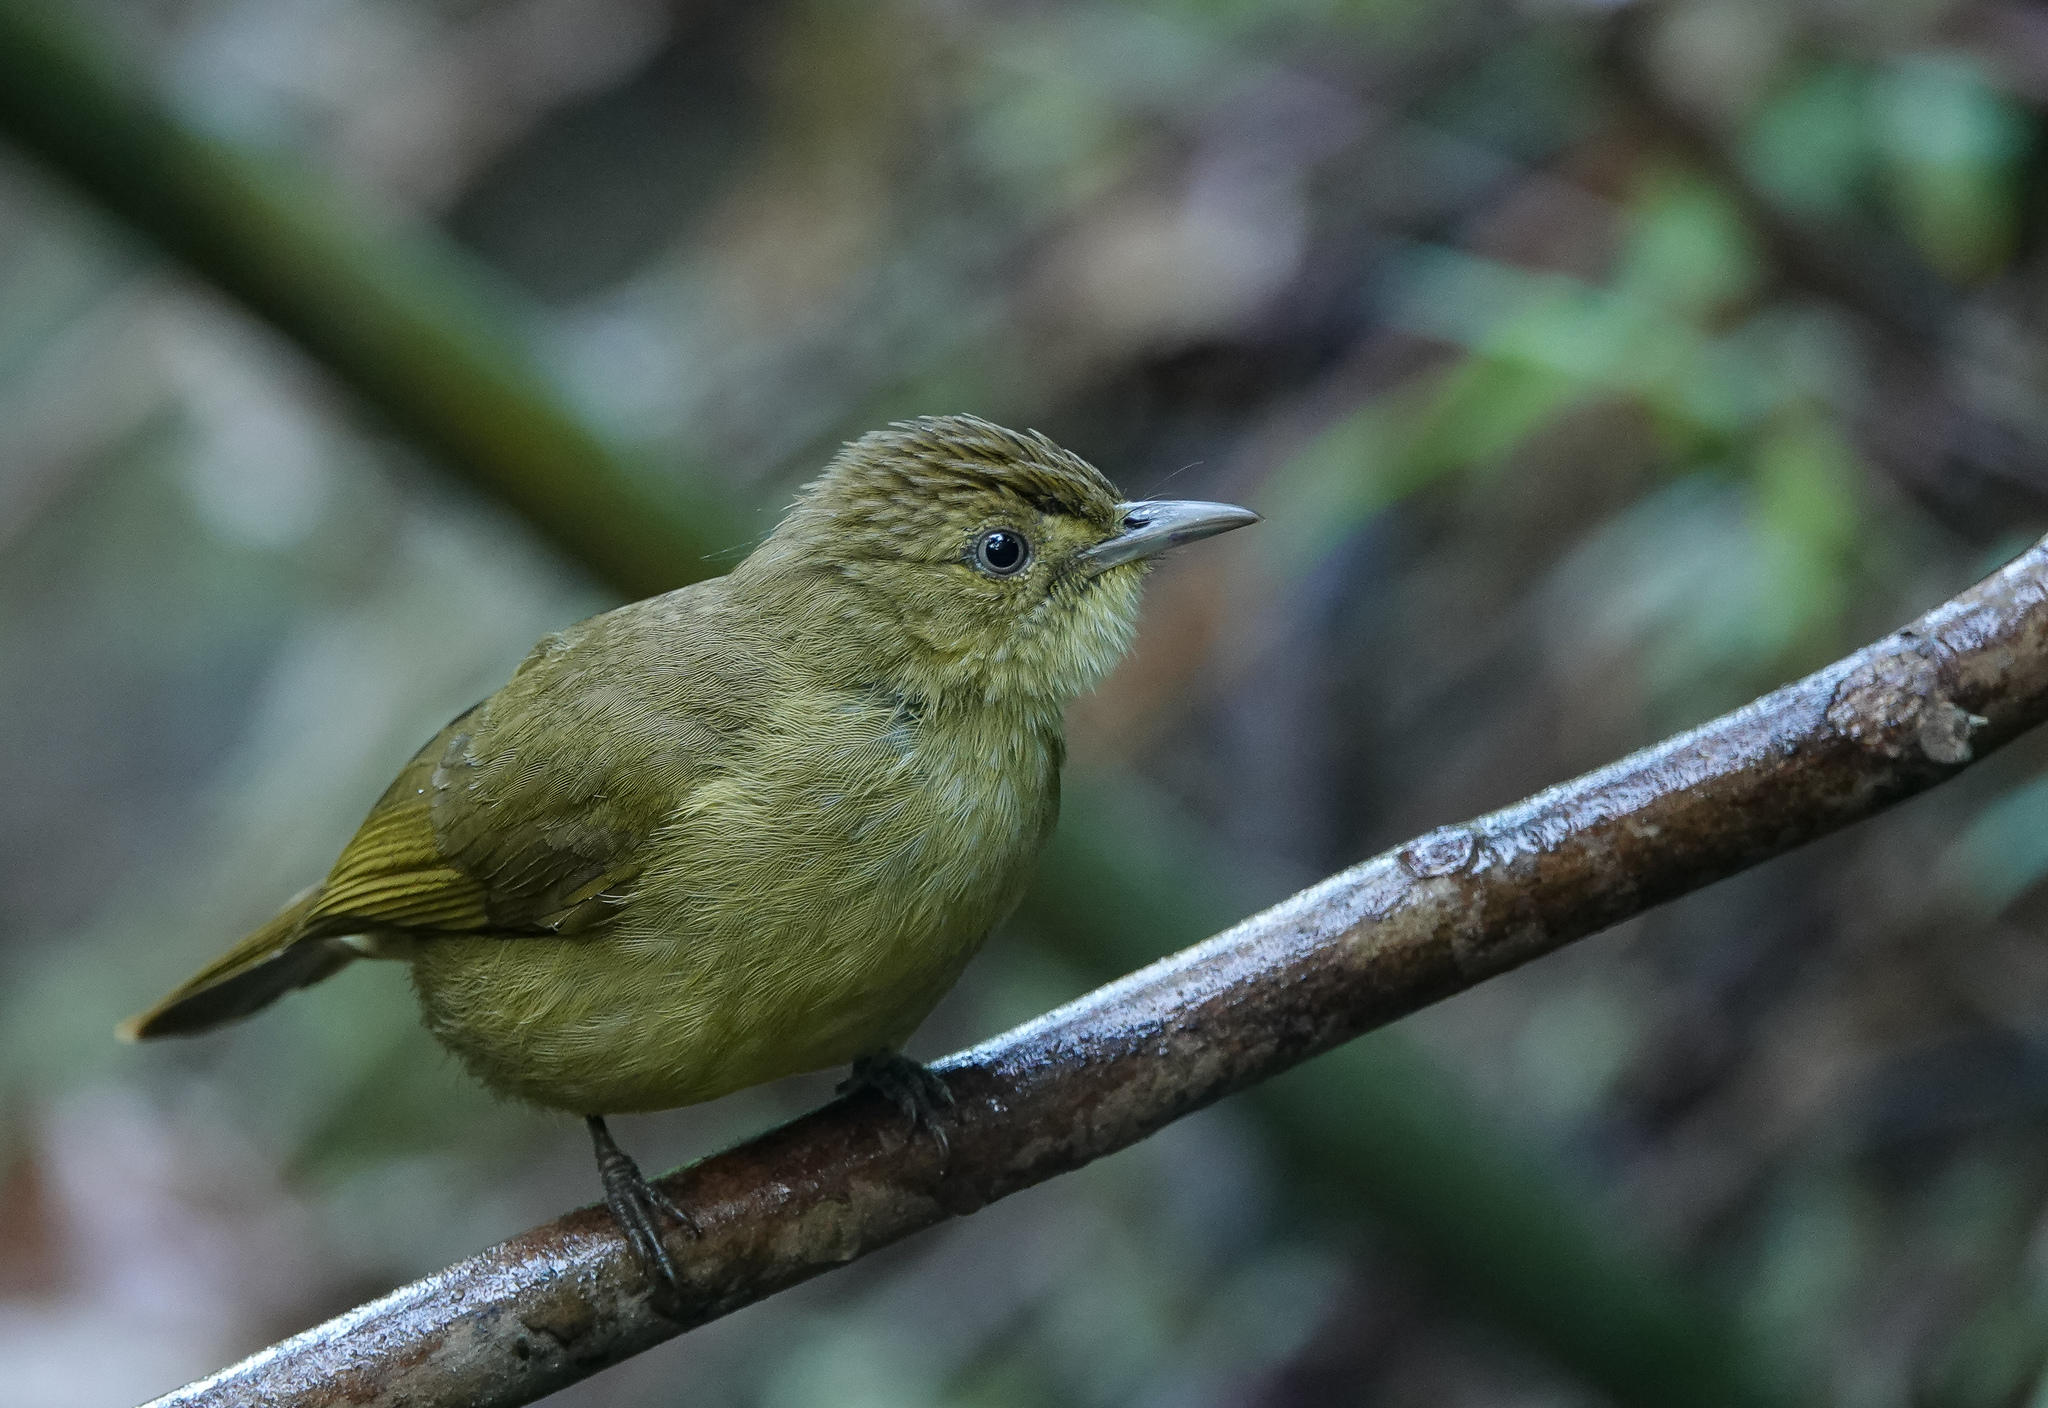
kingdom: Animalia
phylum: Chordata
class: Aves
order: Passeriformes
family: Pycnonotidae
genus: Iole
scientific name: Iole virescens
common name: Olive bulbul
